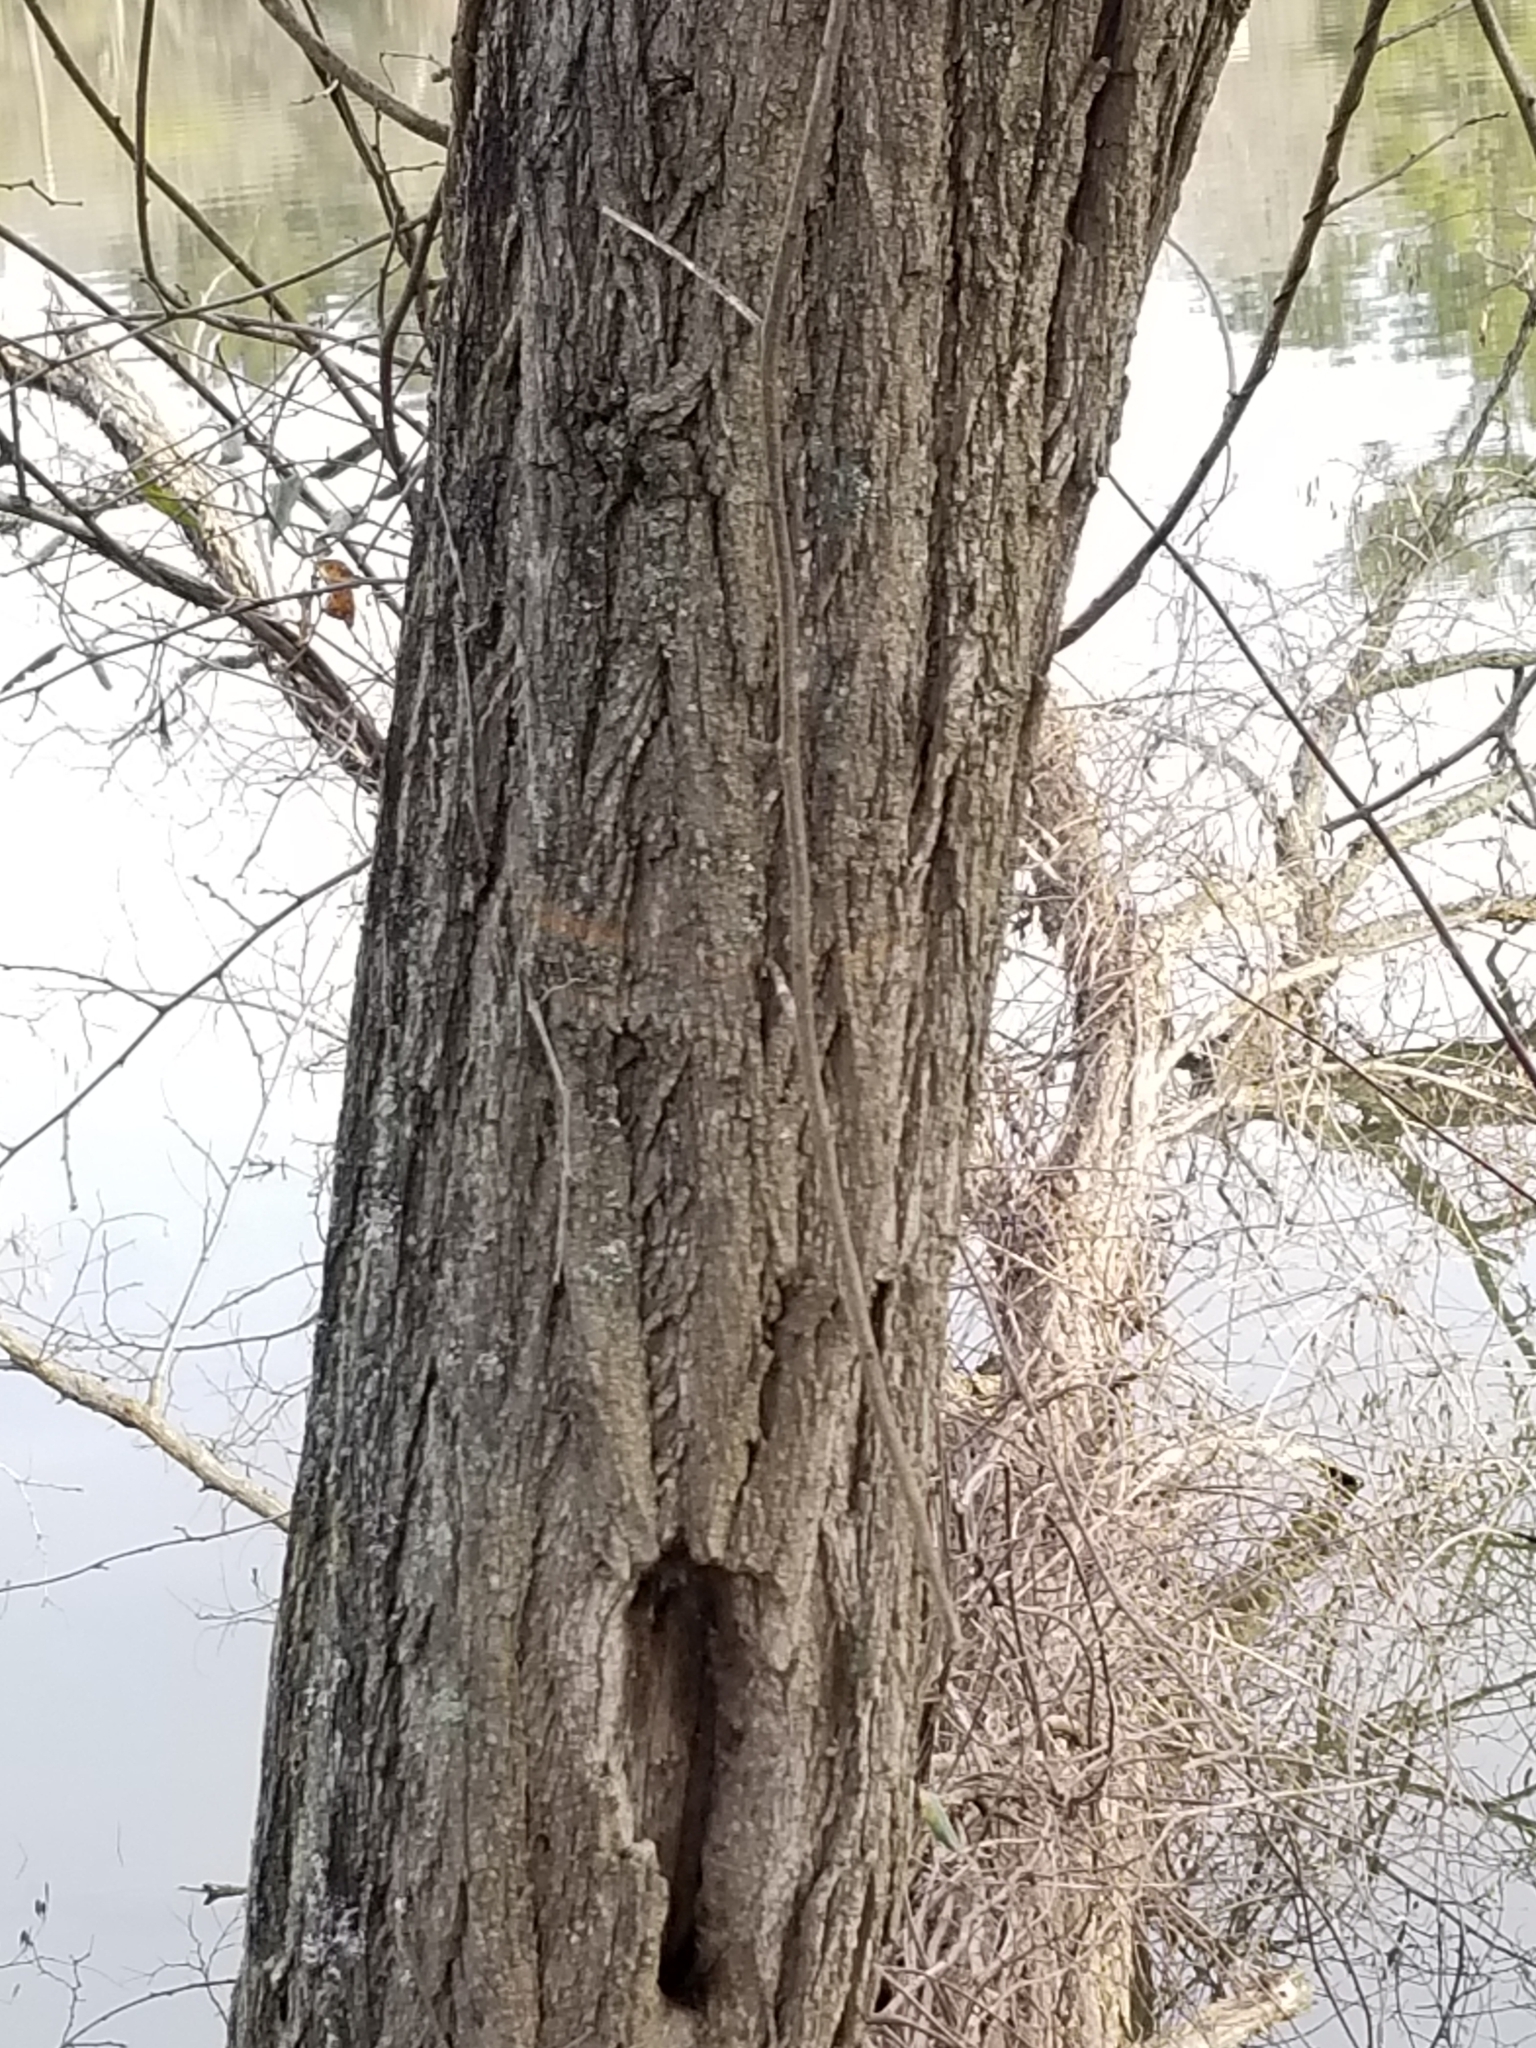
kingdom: Plantae
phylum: Tracheophyta
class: Magnoliopsida
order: Fabales
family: Fabaceae
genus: Robinia
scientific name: Robinia pseudoacacia
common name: Black locust
